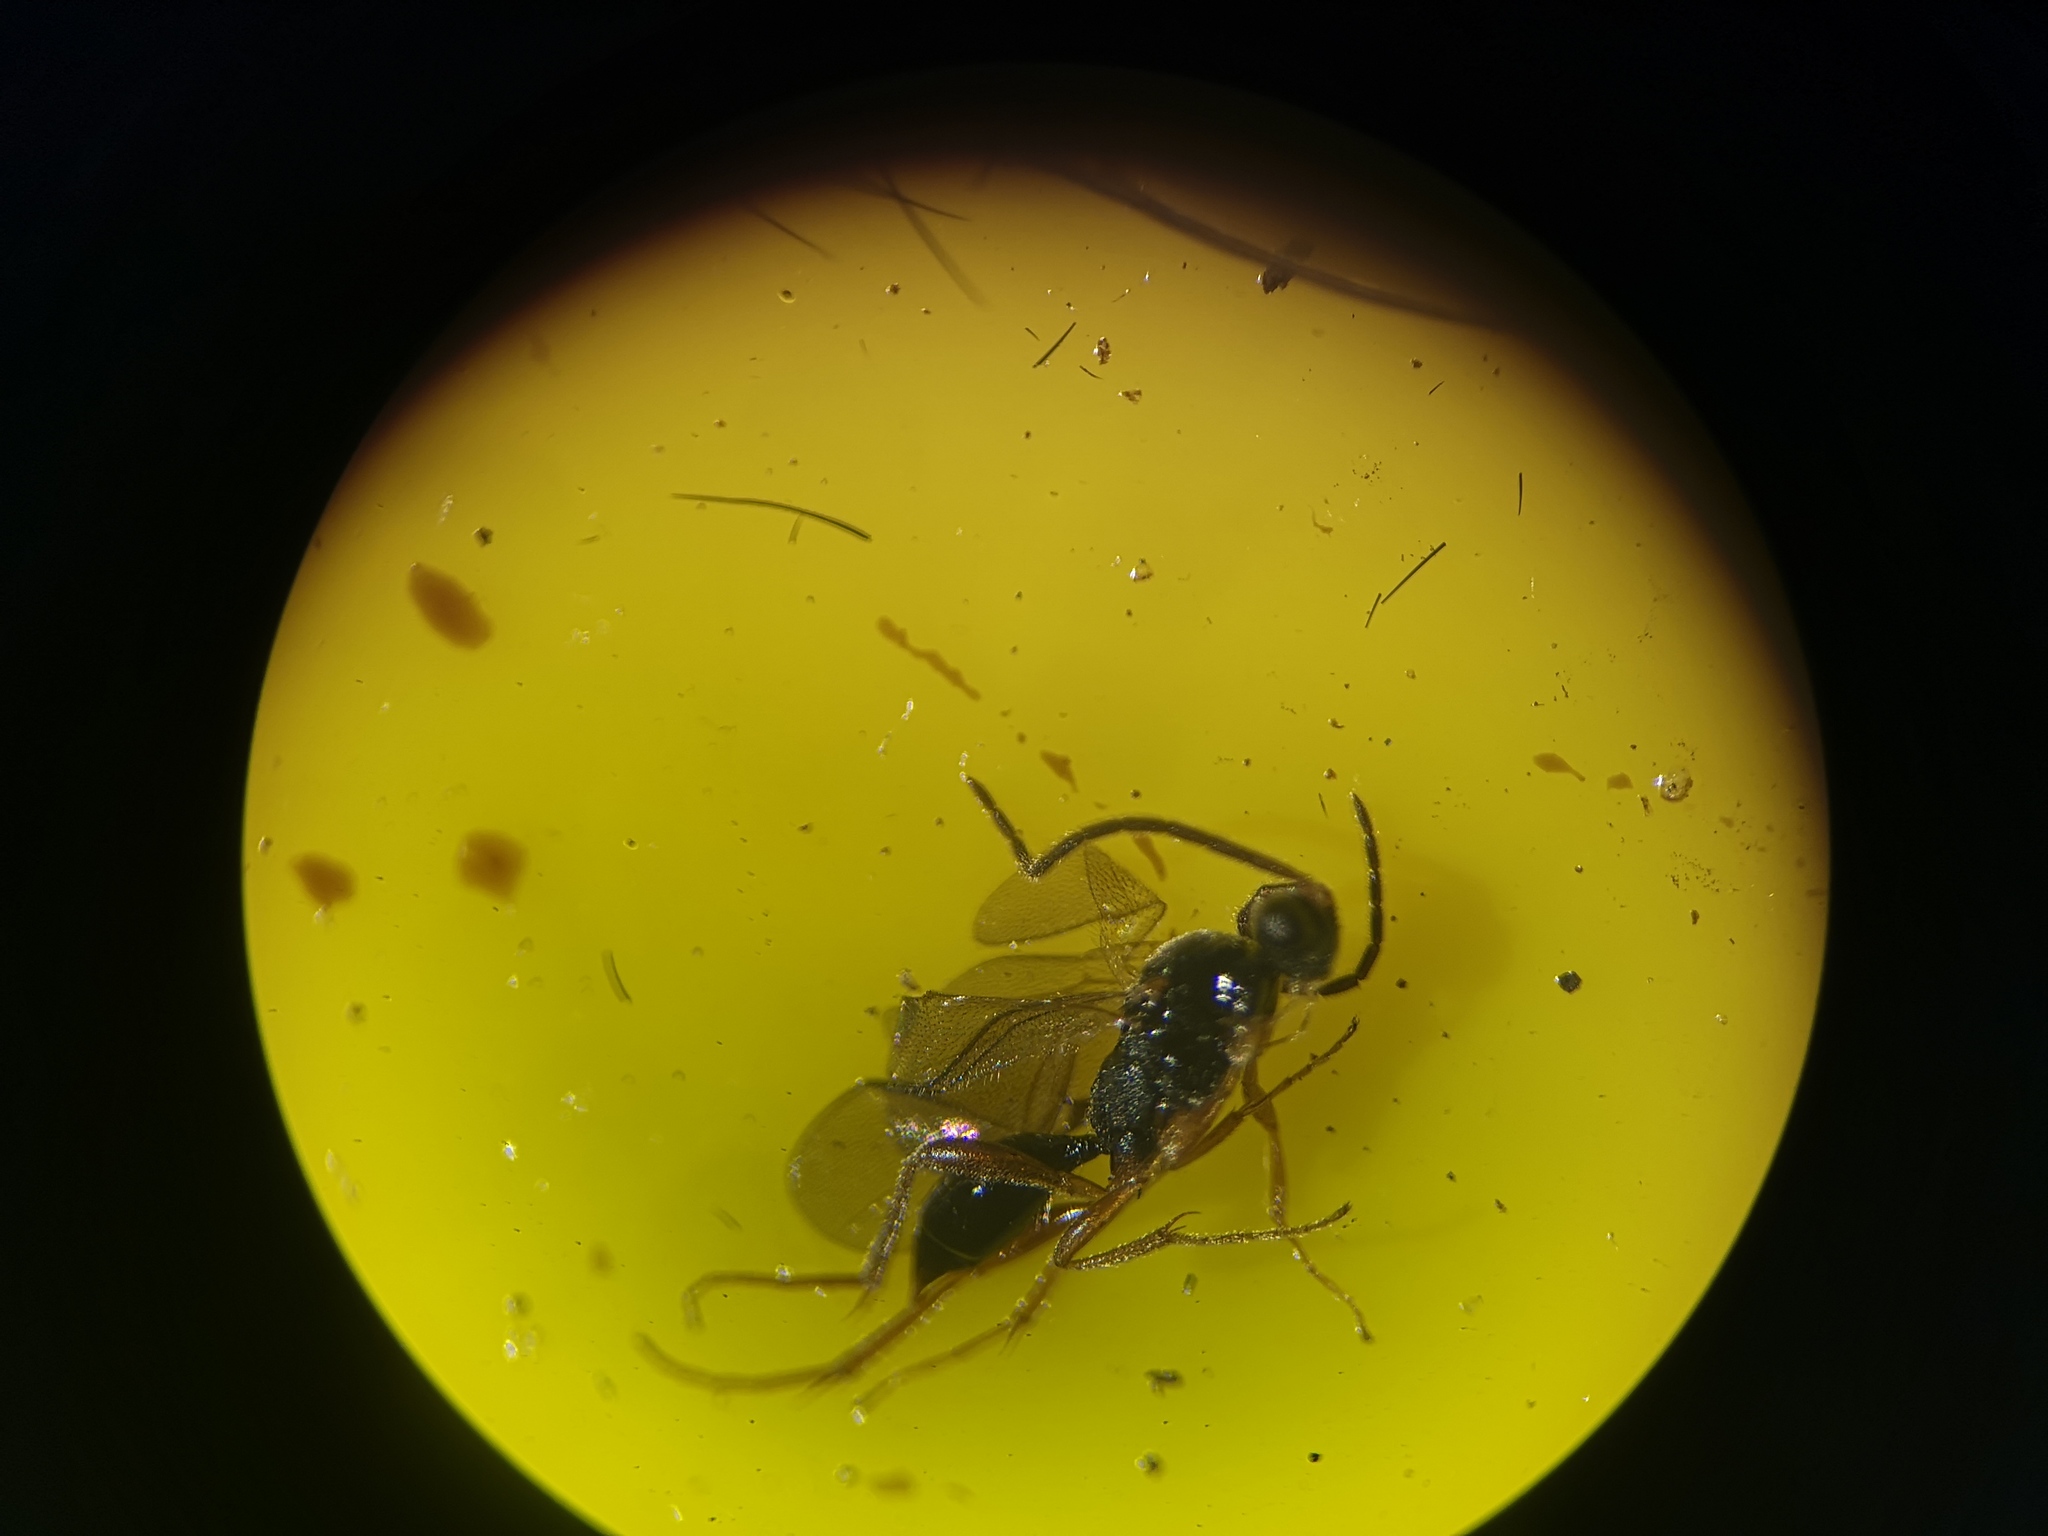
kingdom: Animalia
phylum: Arthropoda
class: Insecta
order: Hymenoptera
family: Proctotrupidae
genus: Phaneroserphus
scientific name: Phaneroserphus calcar
